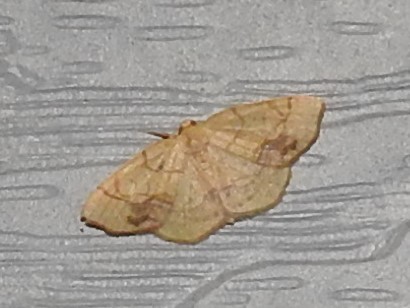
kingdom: Animalia
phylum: Arthropoda
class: Insecta
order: Lepidoptera
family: Geometridae
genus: Nematocampa
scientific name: Nematocampa resistaria
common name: Horned spanworm moth
